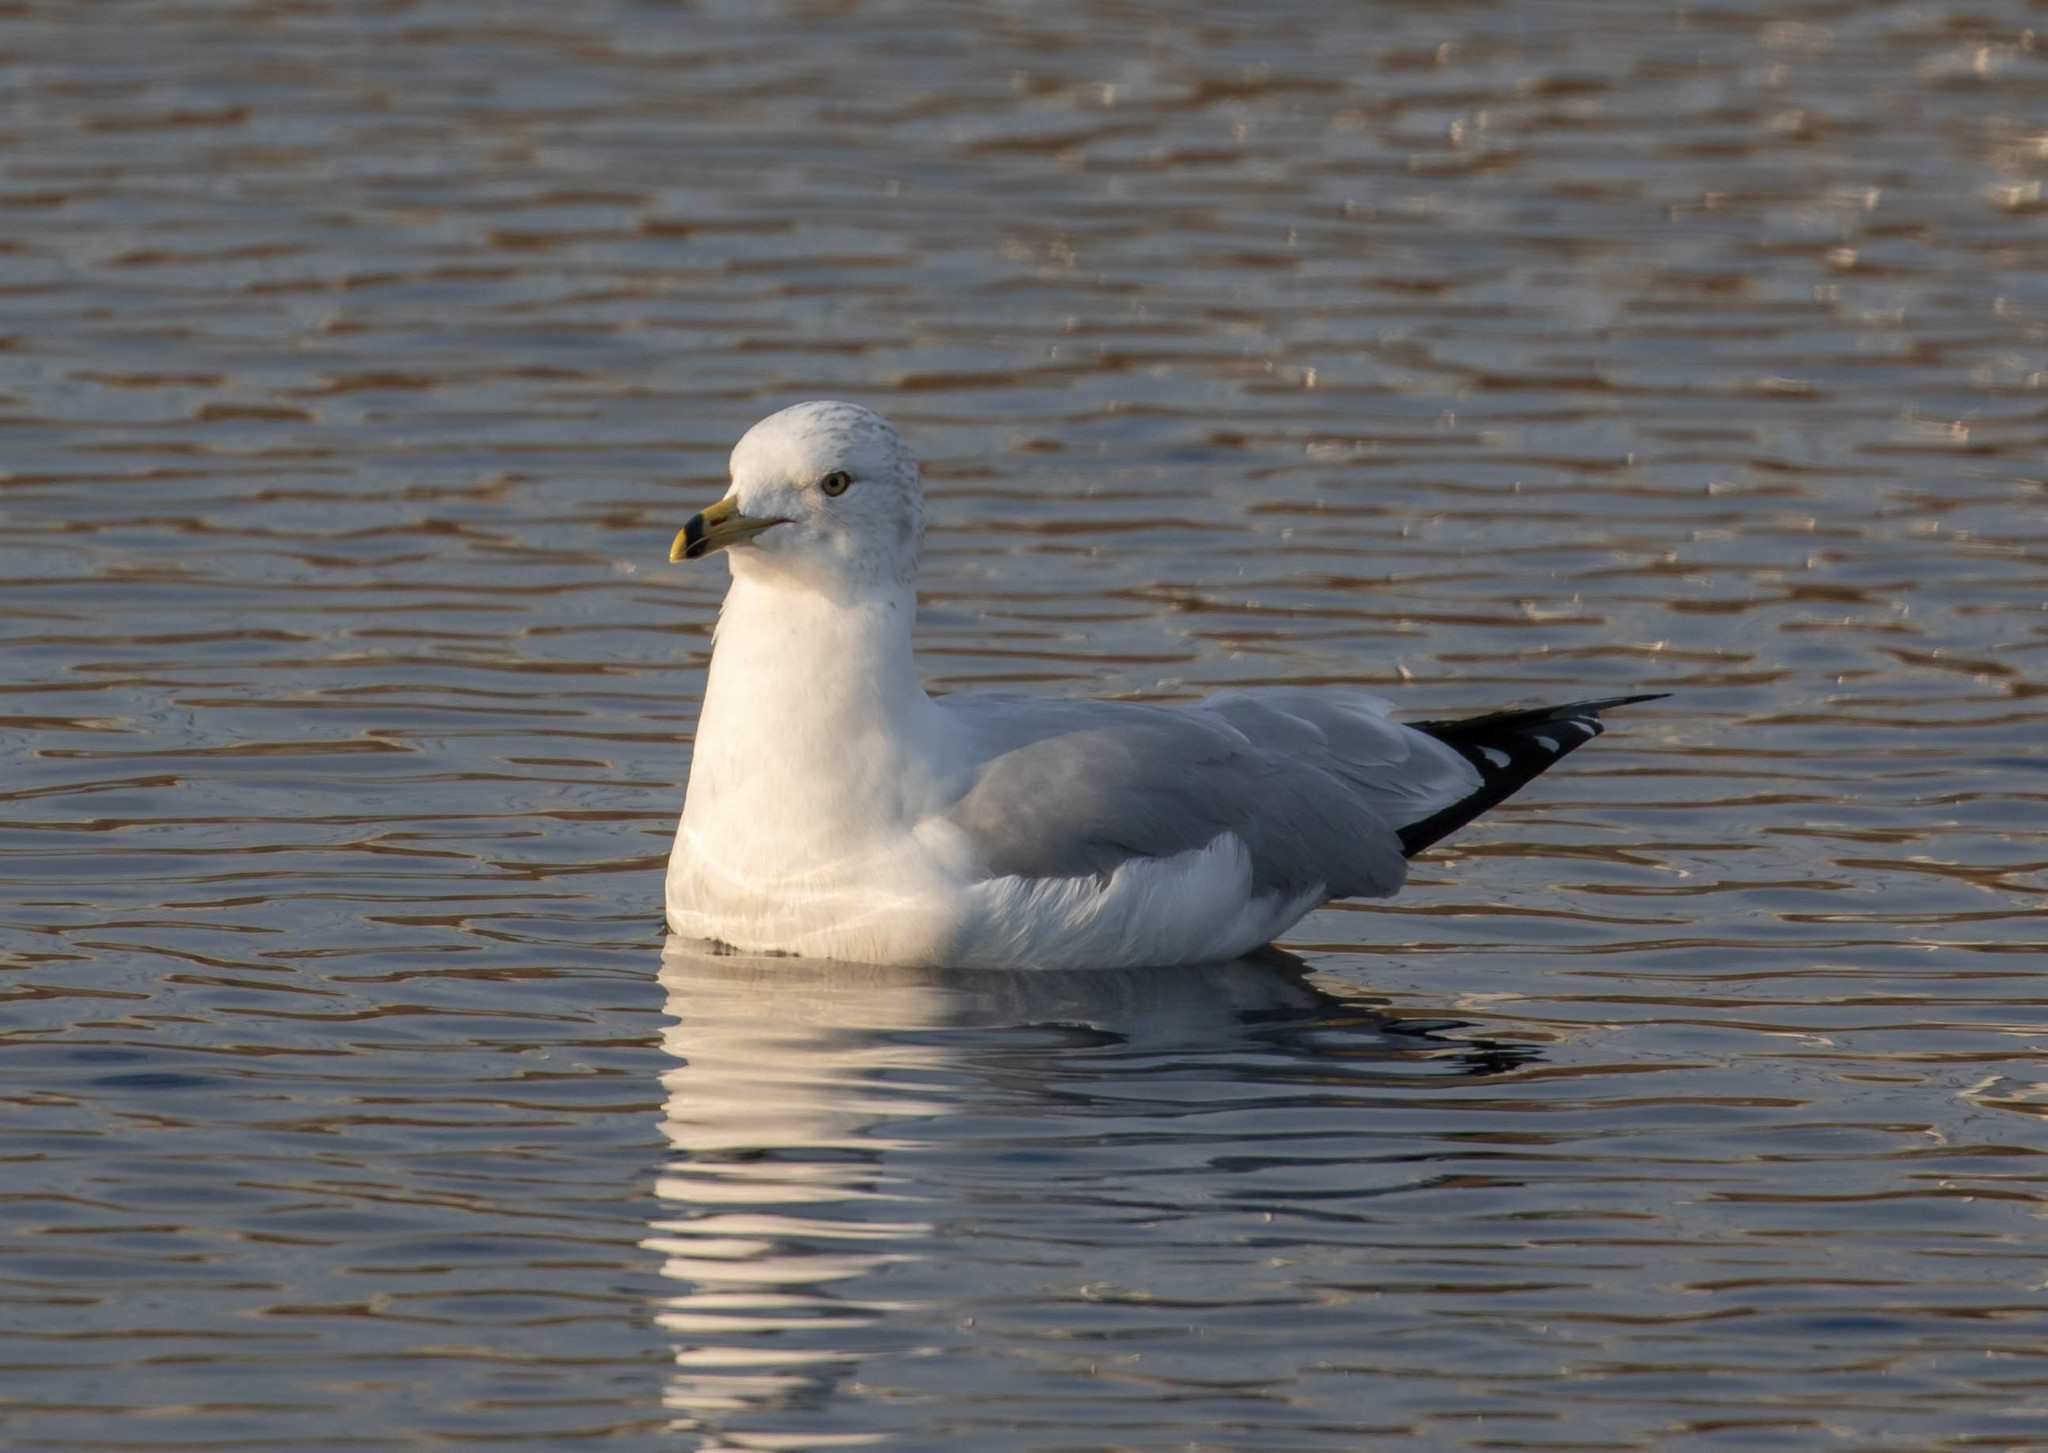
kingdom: Animalia
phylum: Chordata
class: Aves
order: Charadriiformes
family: Laridae
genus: Larus
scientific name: Larus delawarensis
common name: Ring-billed gull
